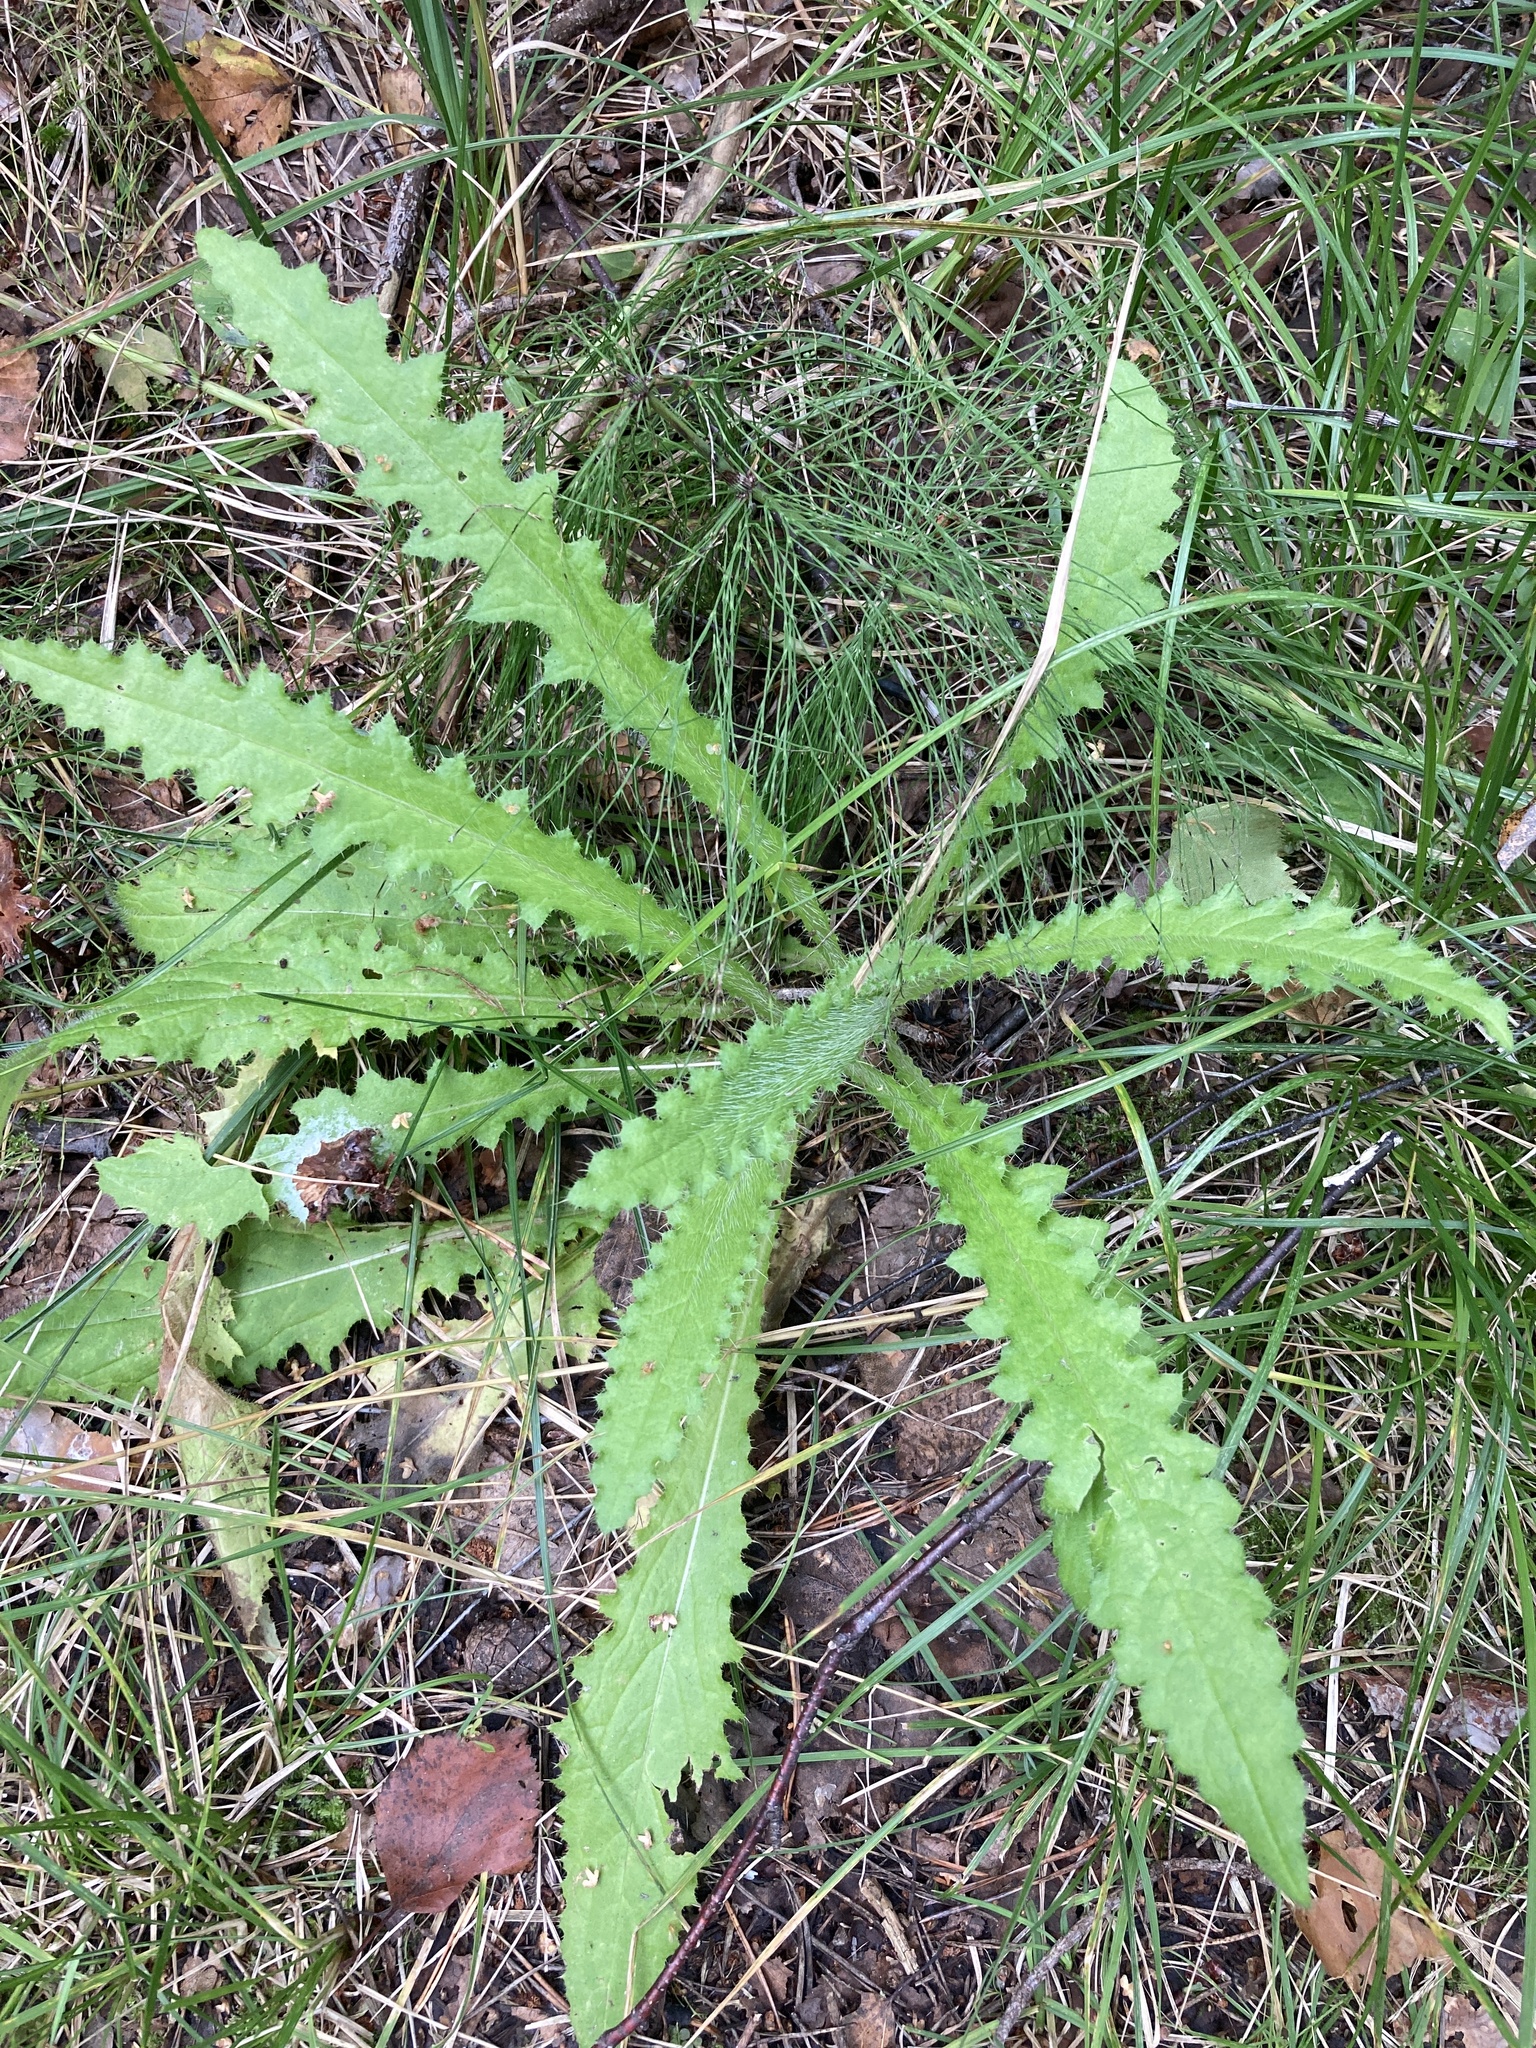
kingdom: Plantae
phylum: Tracheophyta
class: Magnoliopsida
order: Asterales
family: Asteraceae
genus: Cirsium
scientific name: Cirsium palustre
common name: Marsh thistle
